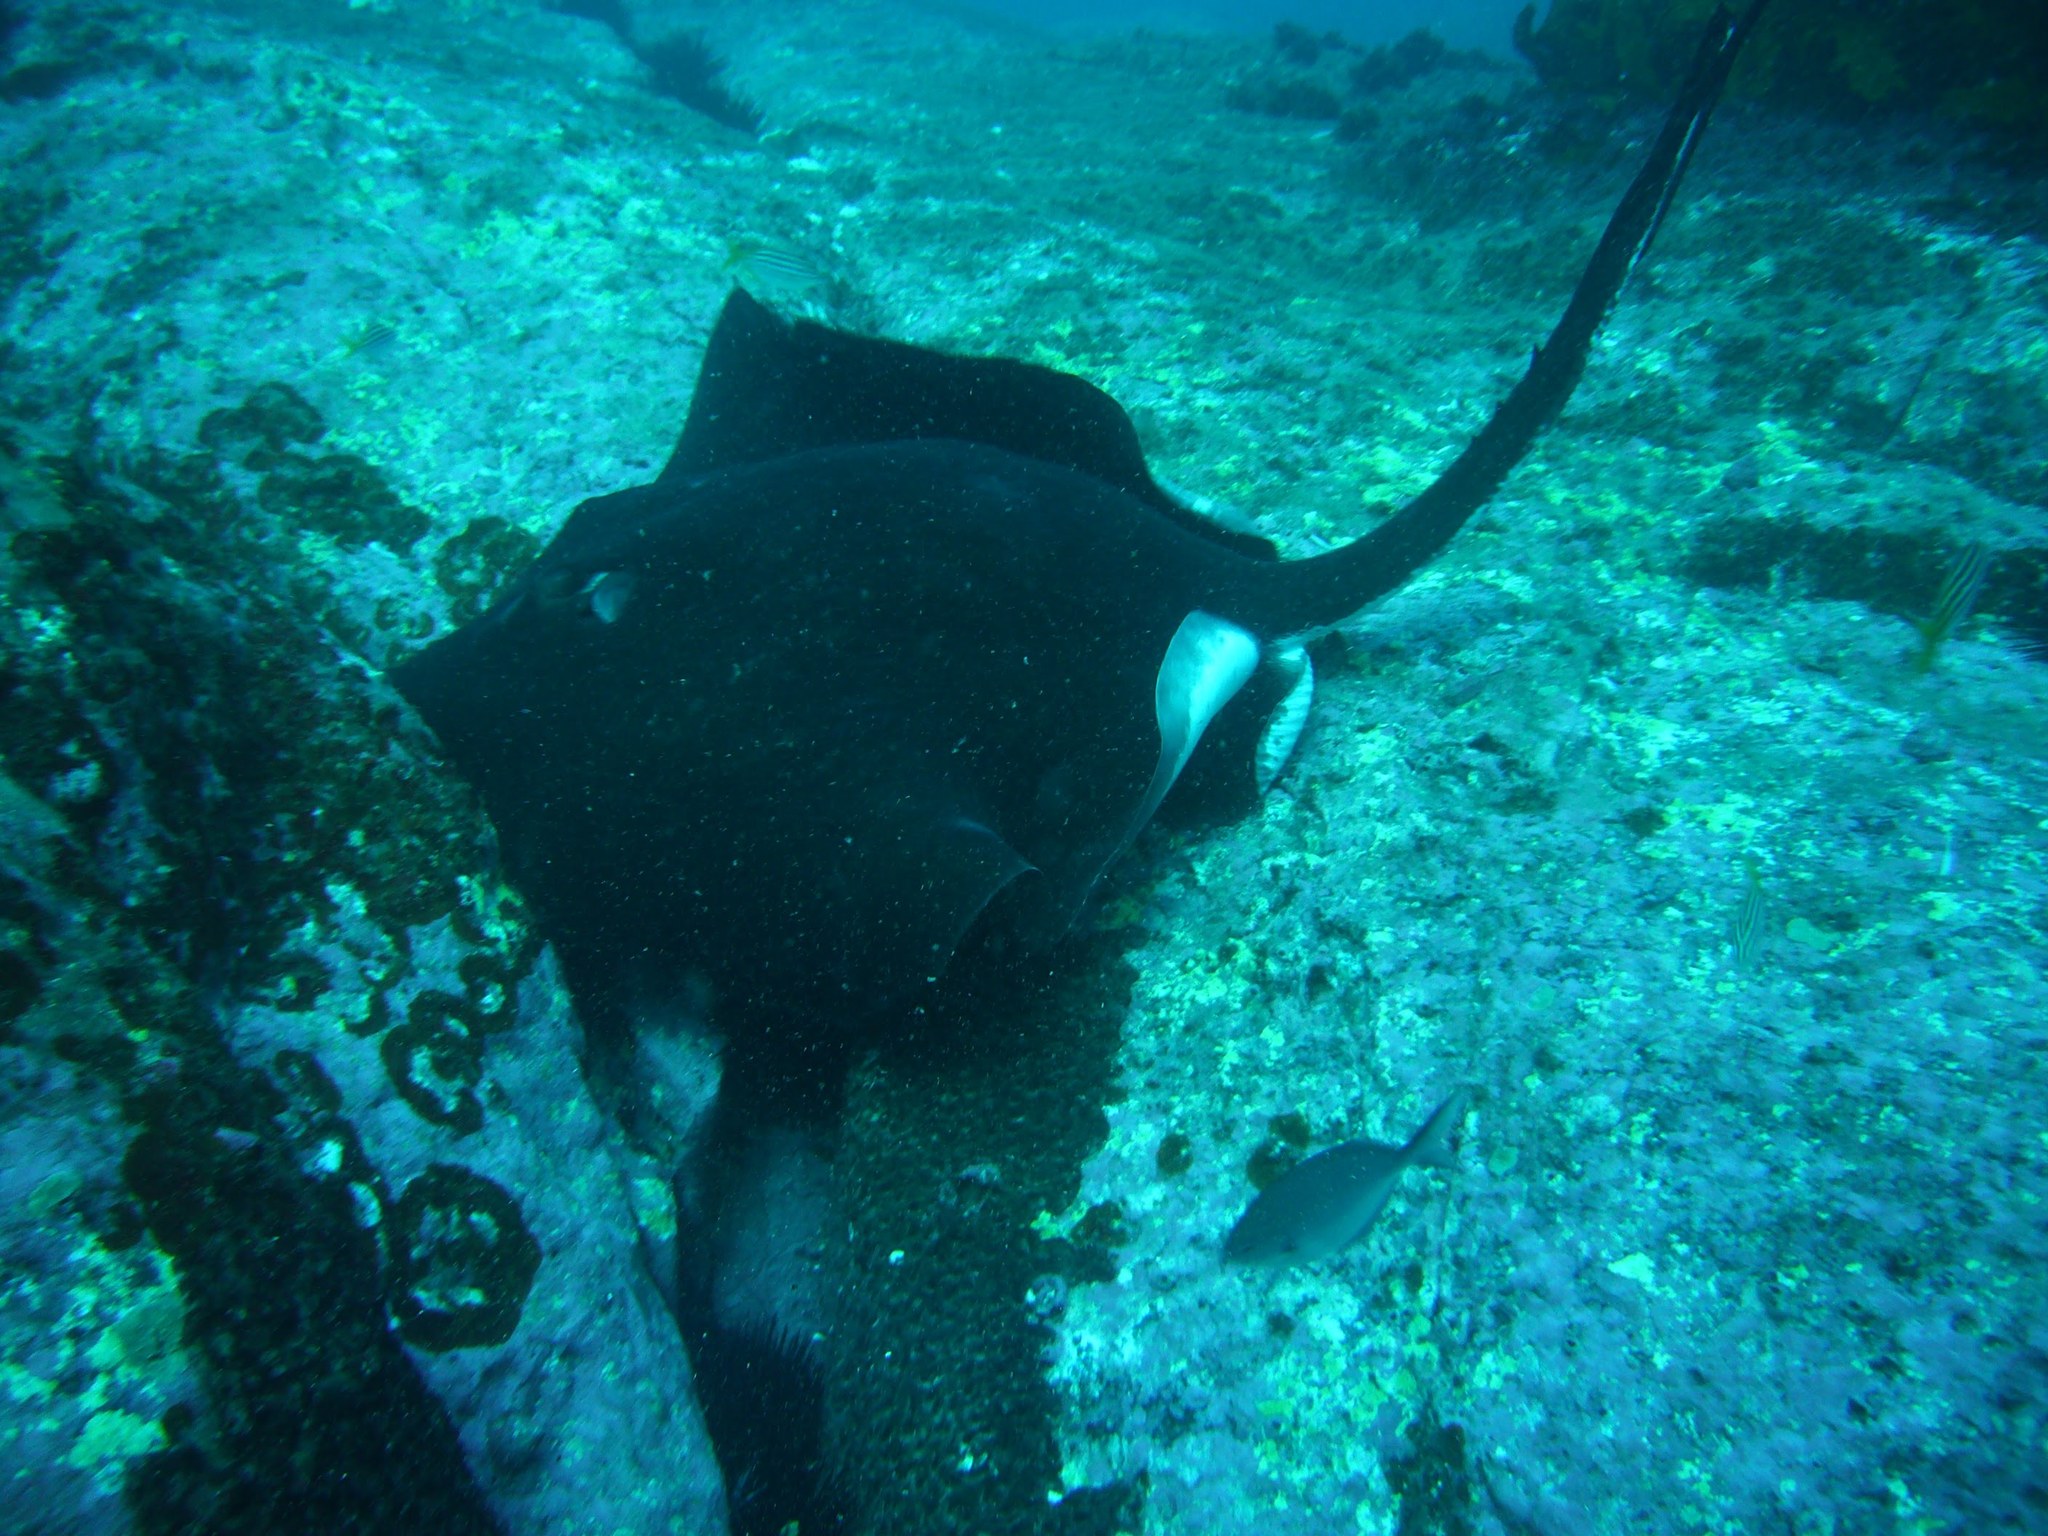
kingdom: Animalia
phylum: Chordata
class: Elasmobranchii
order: Myliobatiformes
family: Dasyatidae
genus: Bathytoshia
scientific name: Bathytoshia brevicaudata
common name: Short-tail stingray
